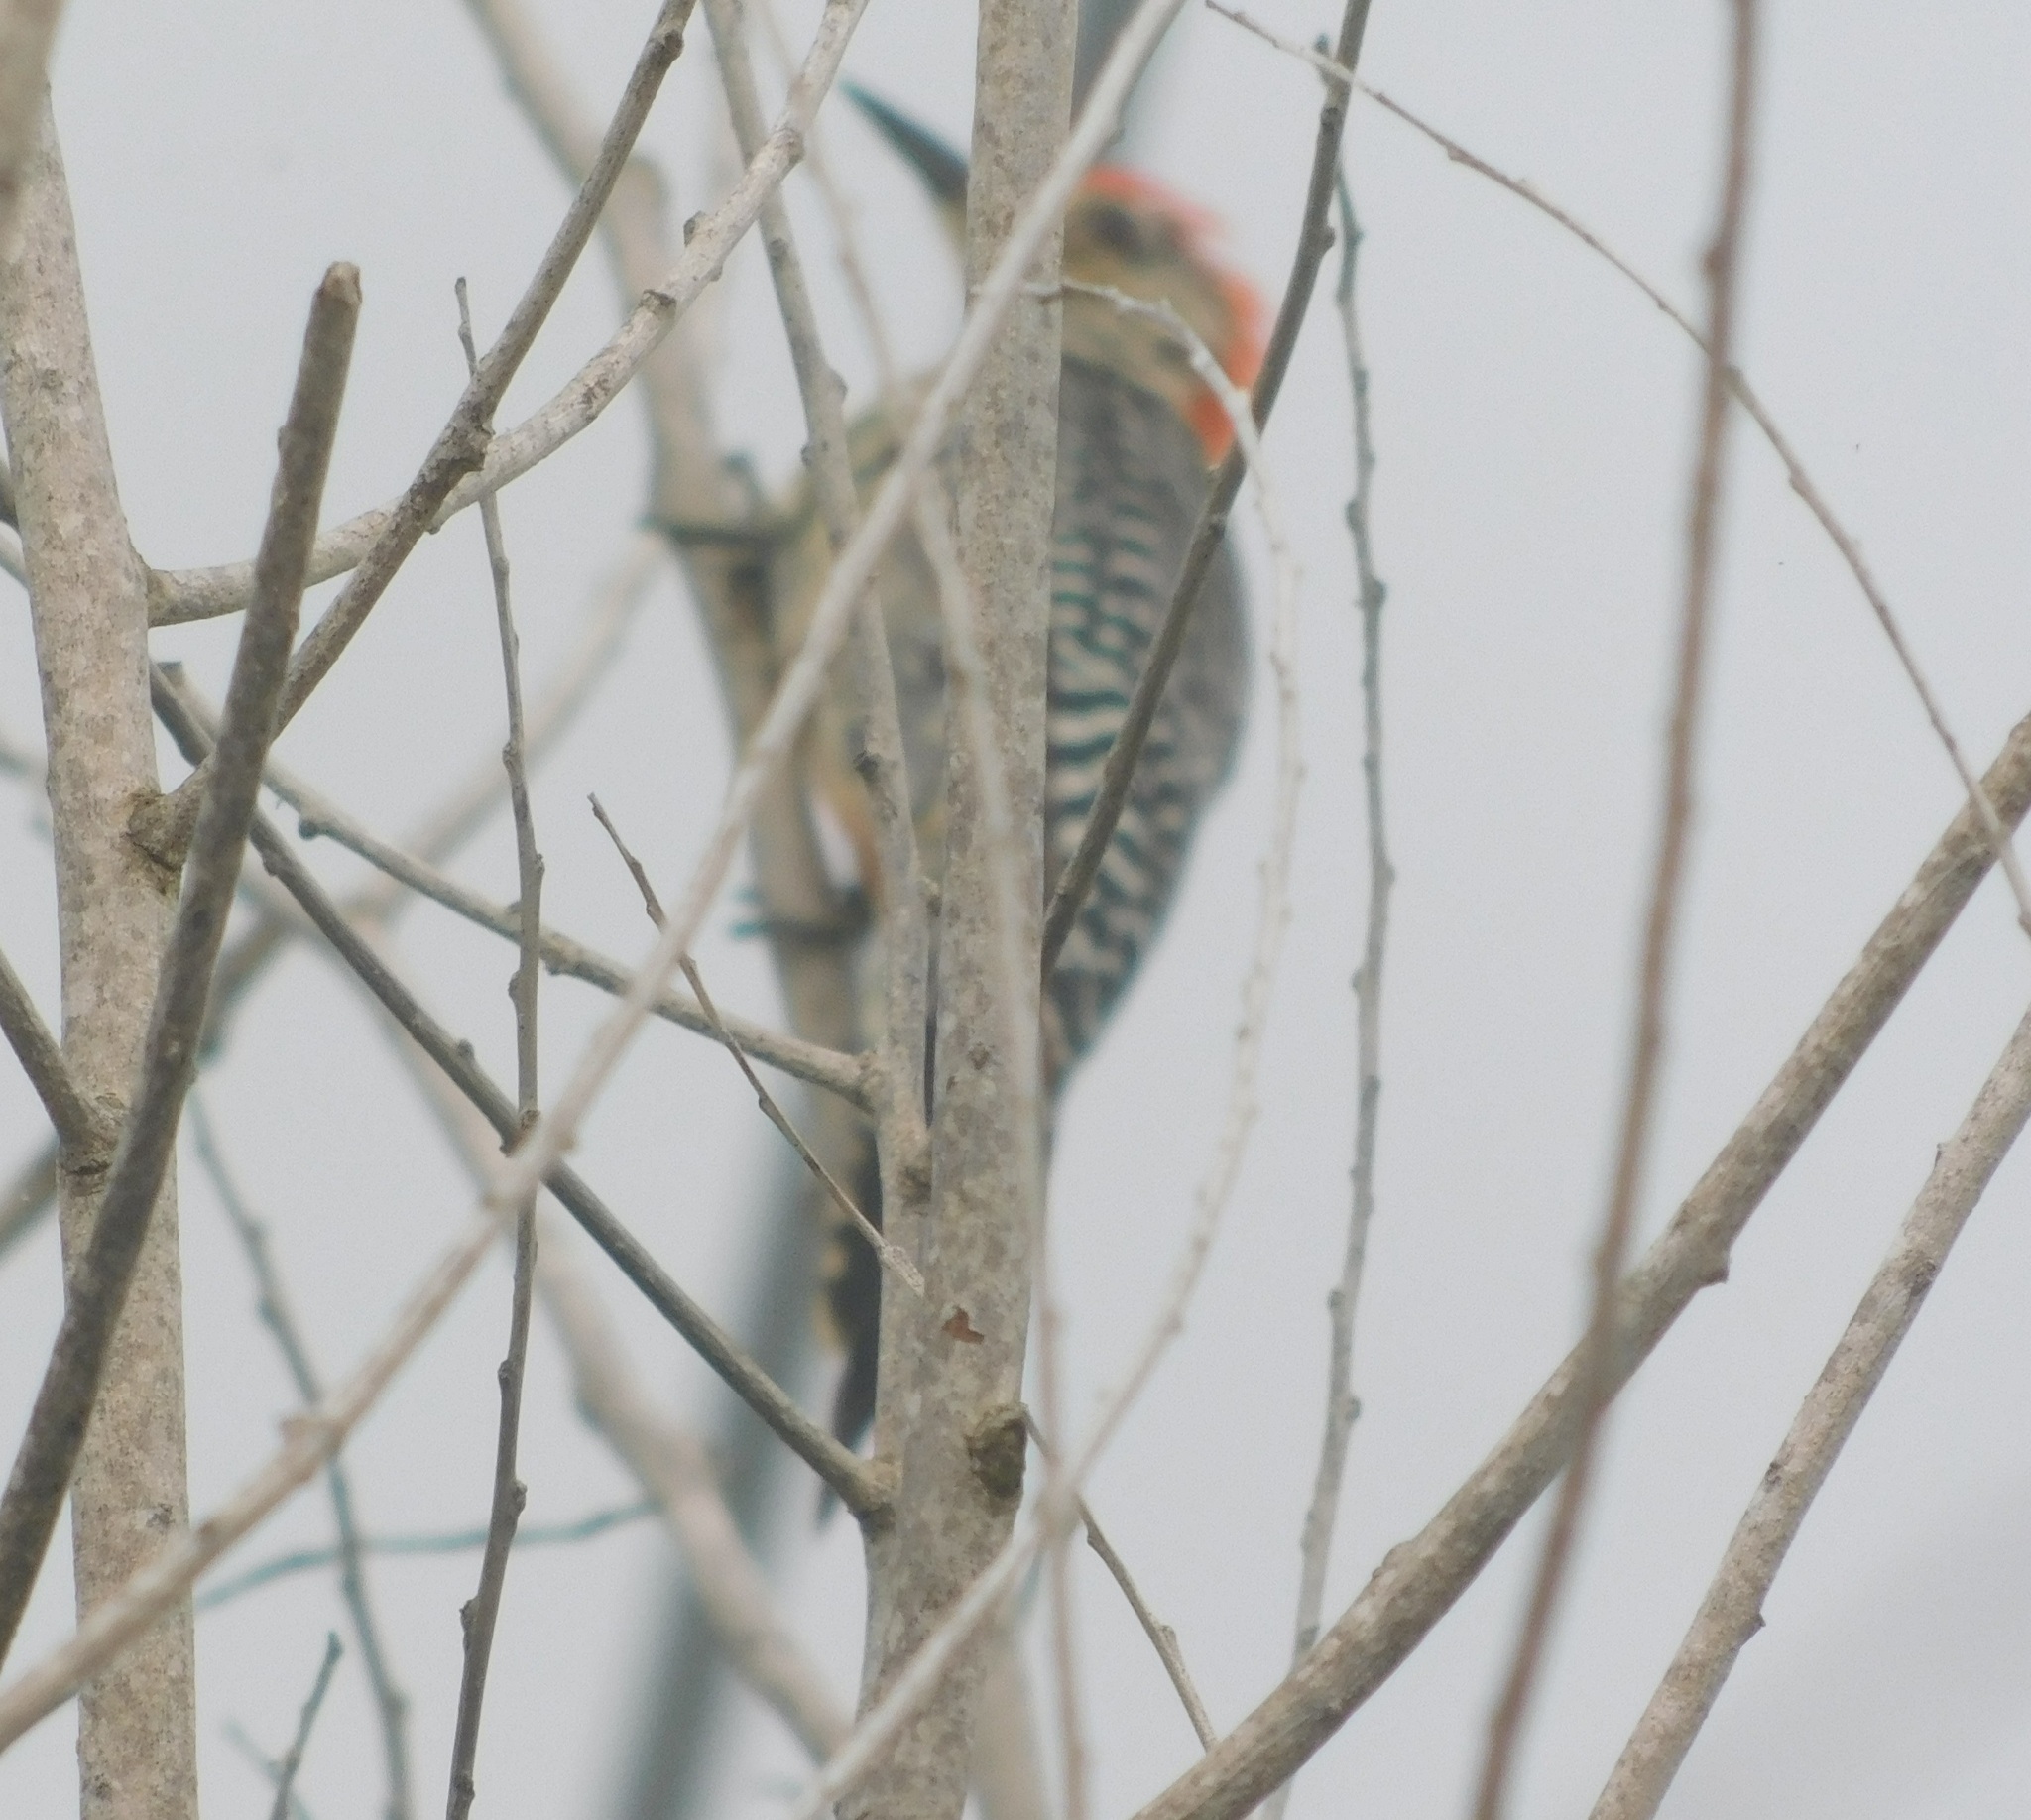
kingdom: Animalia
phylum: Chordata
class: Aves
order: Piciformes
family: Picidae
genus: Melanerpes
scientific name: Melanerpes carolinus
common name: Red-bellied woodpecker
